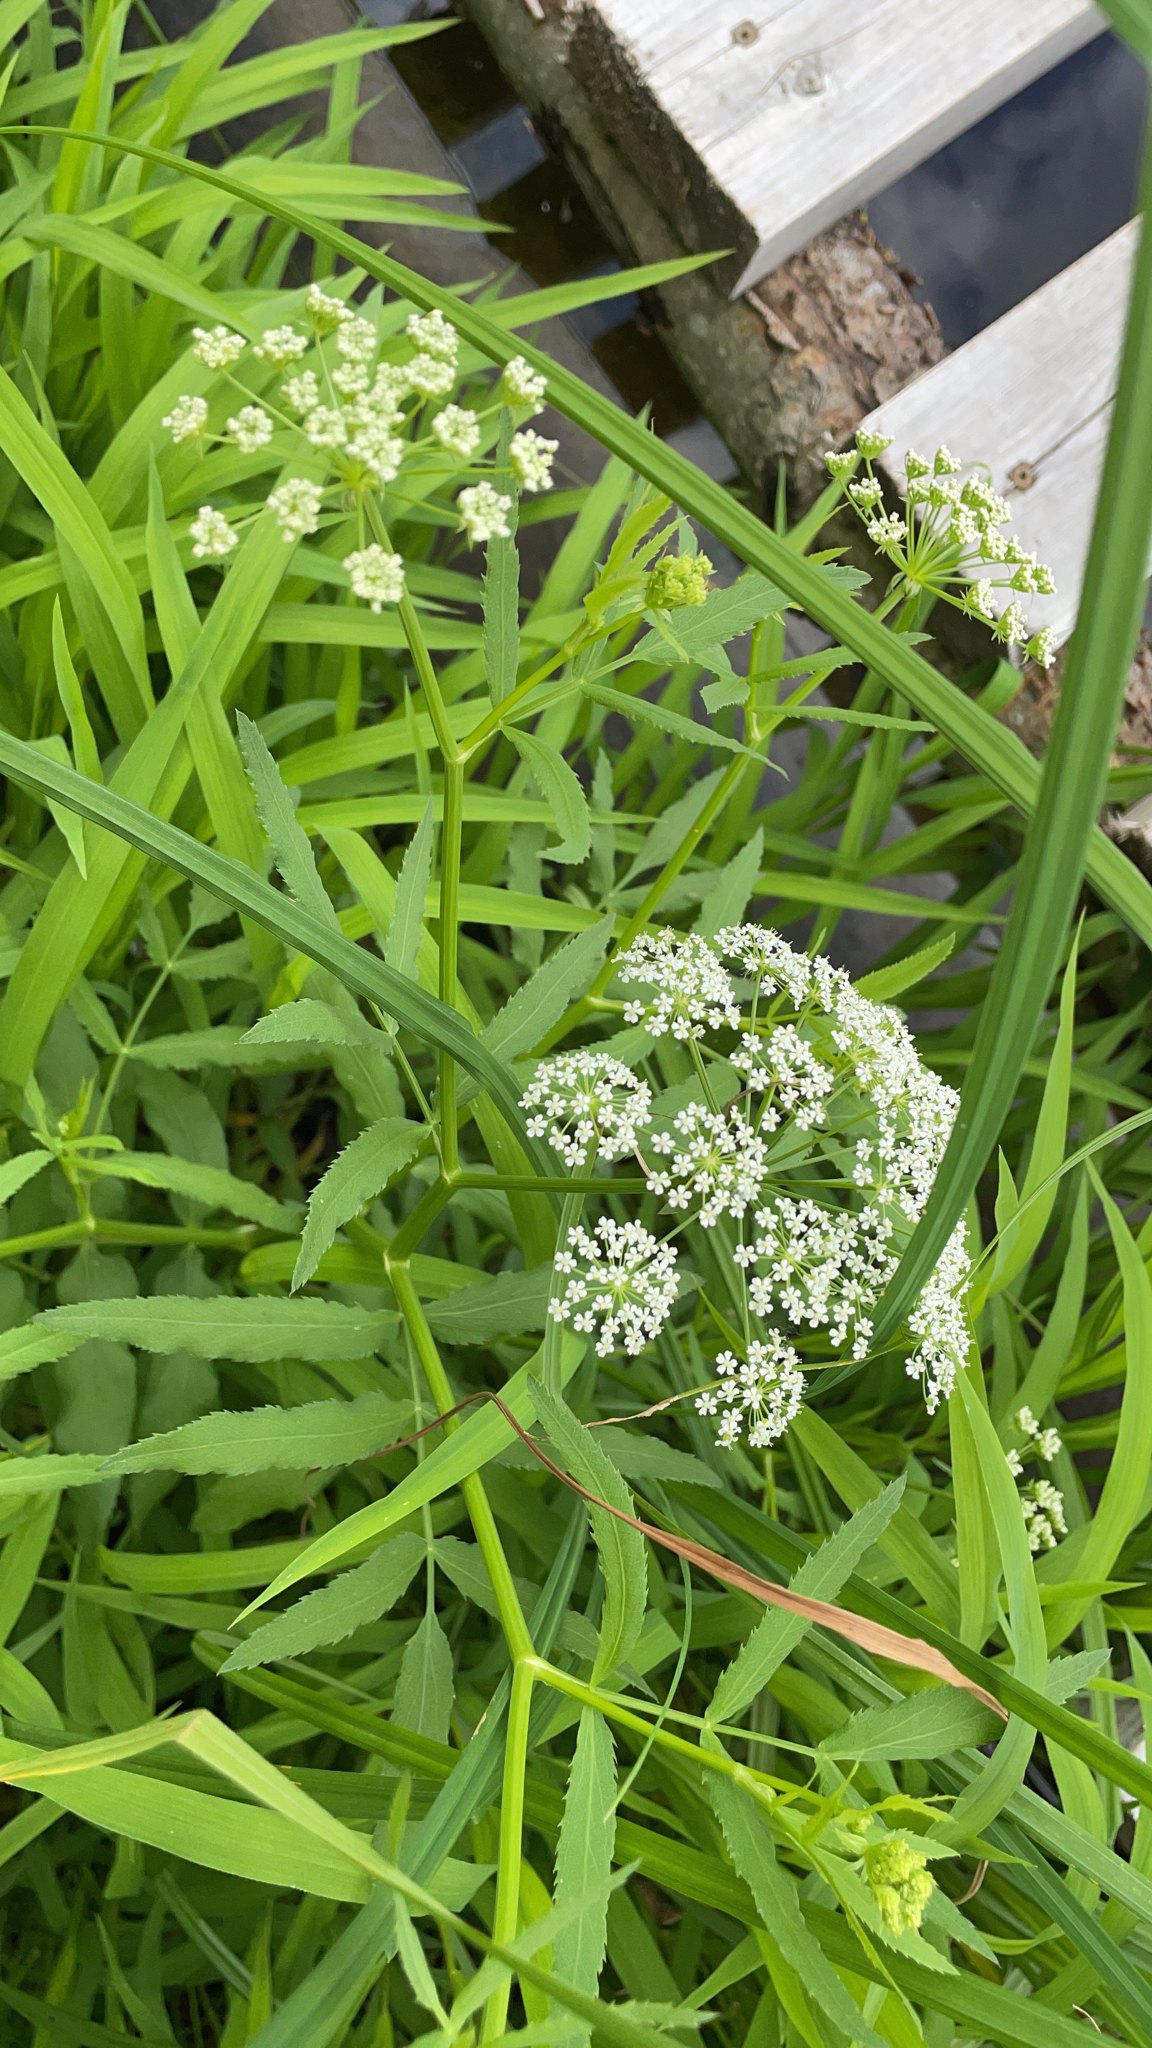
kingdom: Plantae
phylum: Tracheophyta
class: Magnoliopsida
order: Apiales
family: Apiaceae
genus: Sium
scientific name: Sium latifolium
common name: Greater water-parsnip
